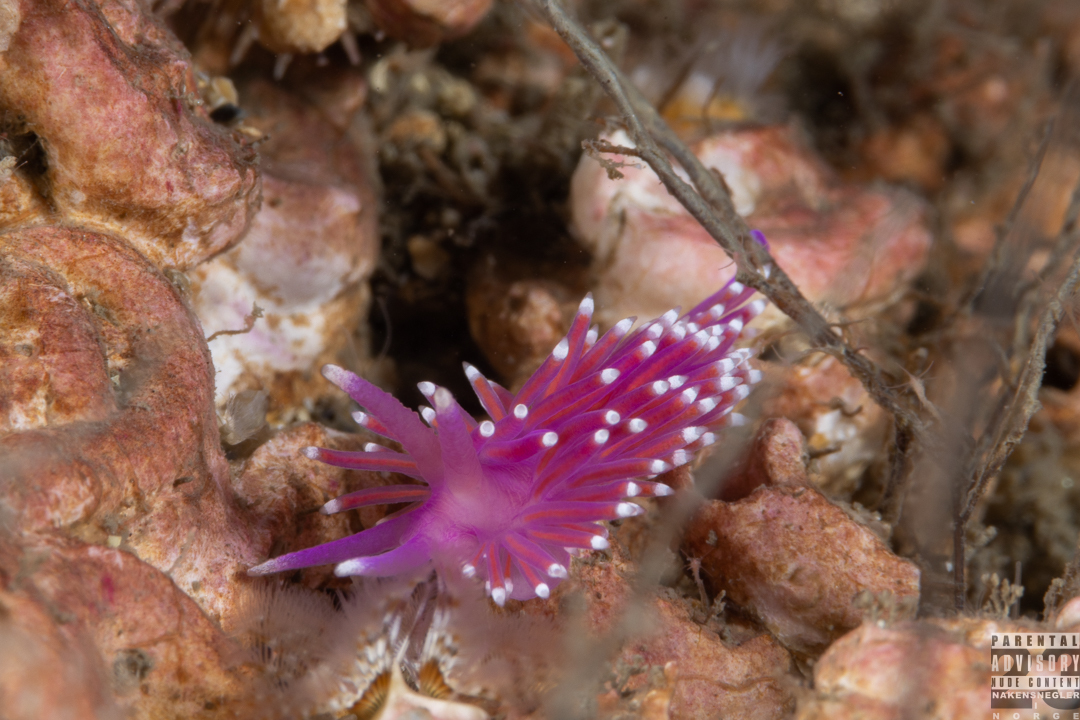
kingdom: Animalia
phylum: Mollusca
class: Gastropoda
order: Nudibranchia
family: Flabellinidae
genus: Edmundsella
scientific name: Edmundsella pedata
